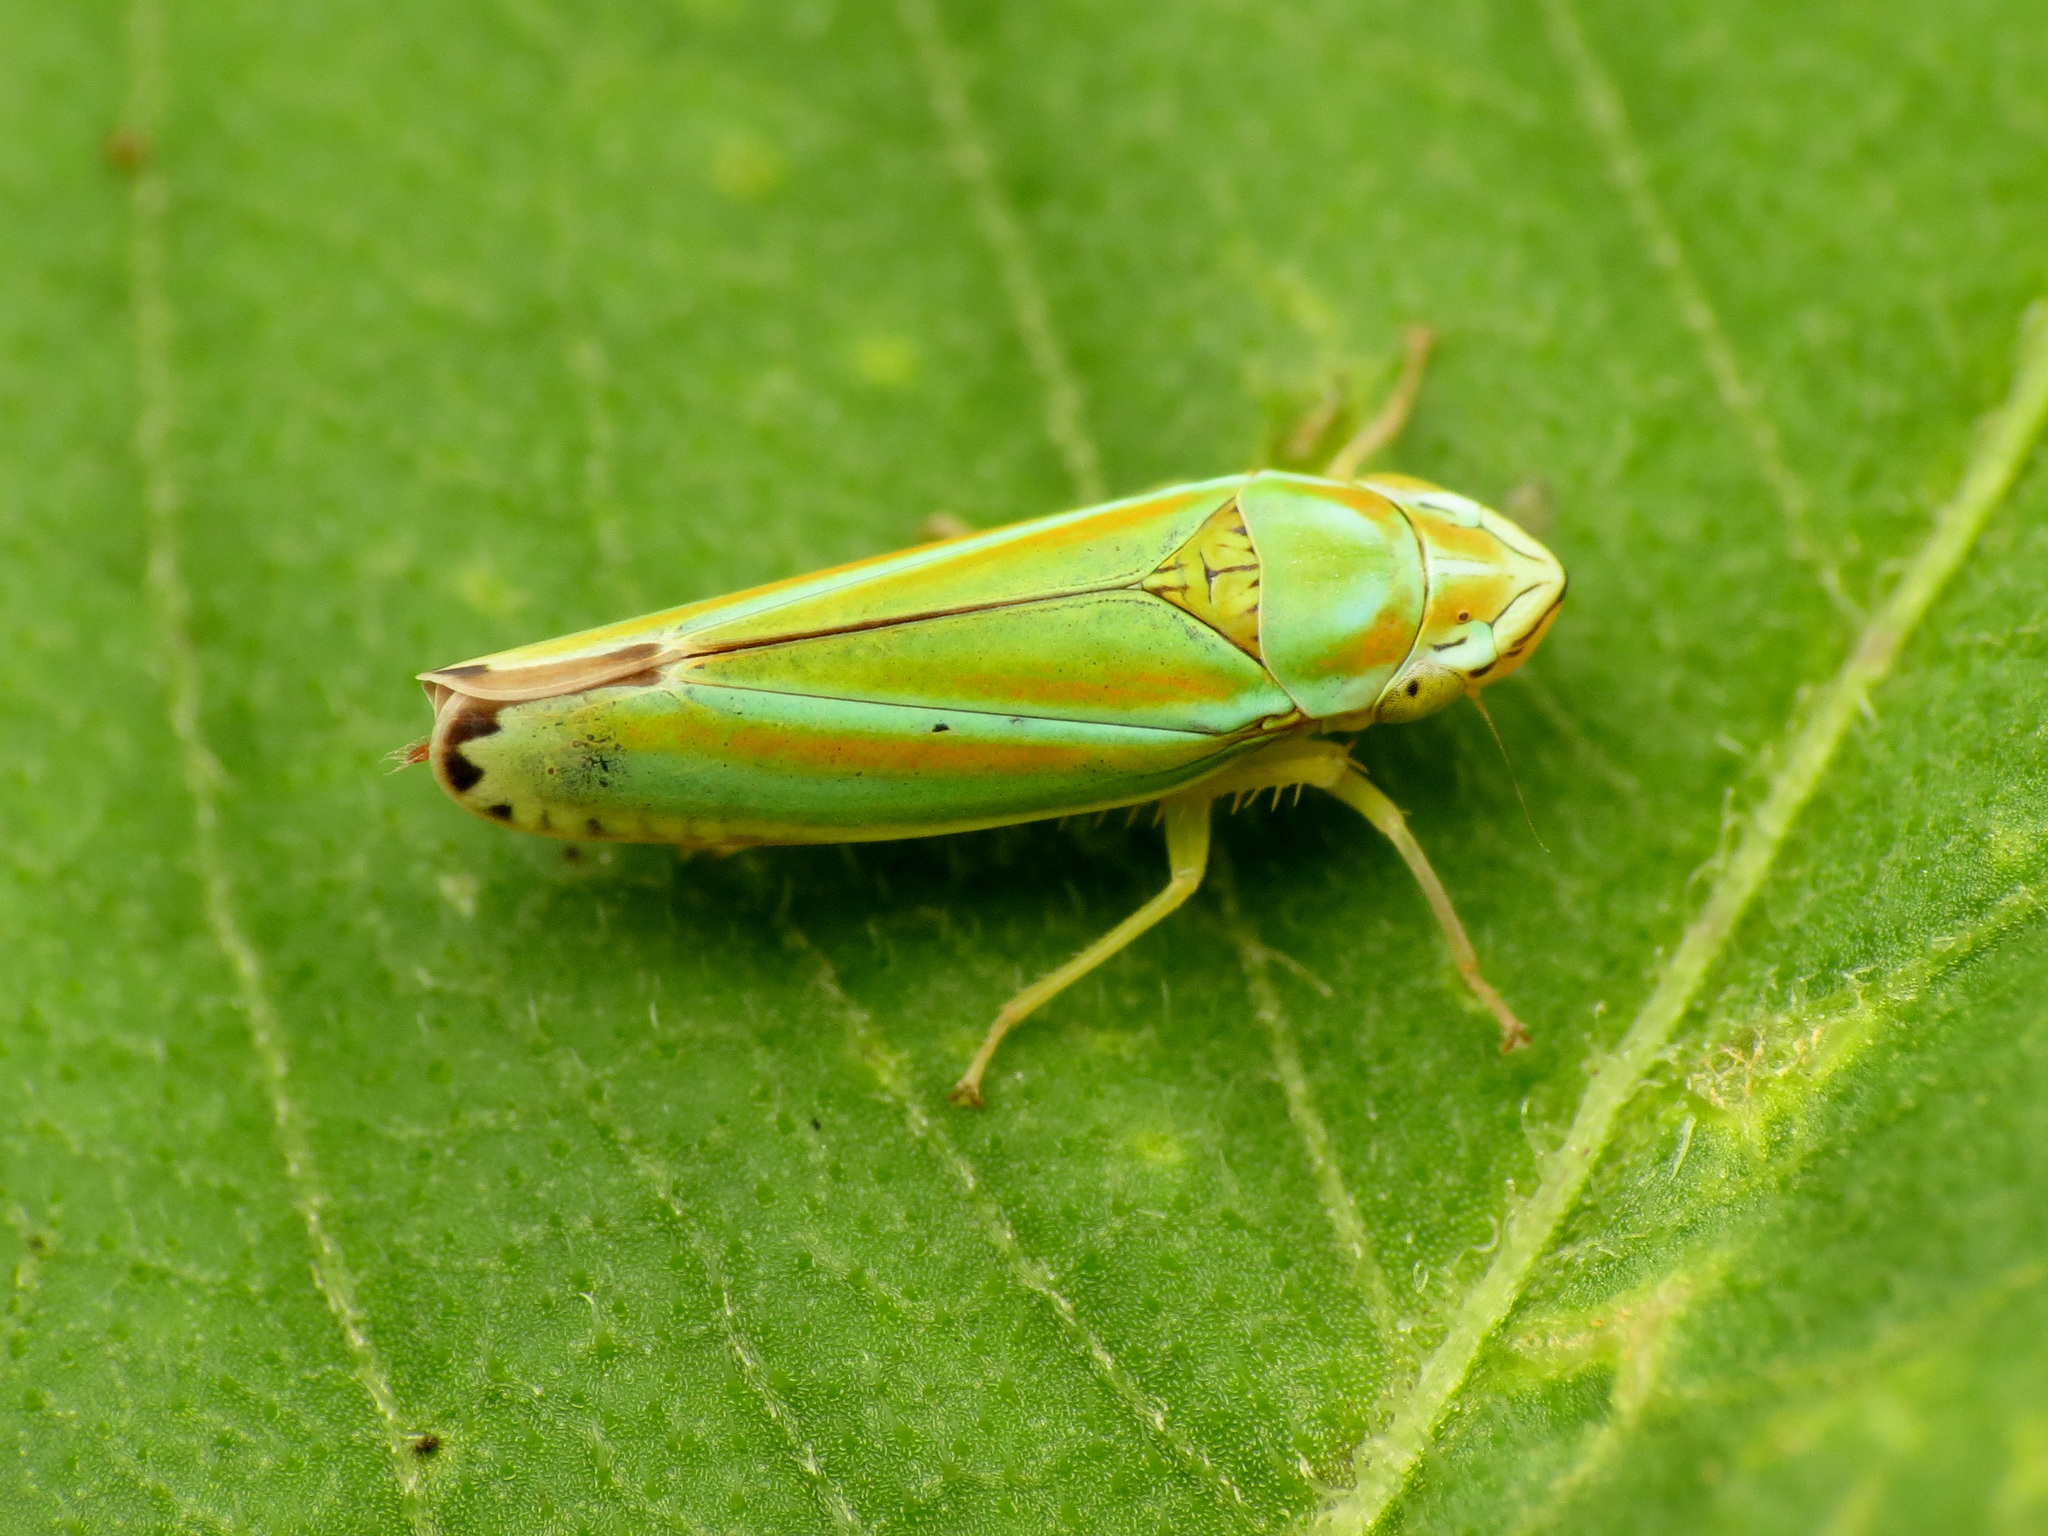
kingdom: Animalia
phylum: Arthropoda
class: Insecta
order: Hemiptera
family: Cicadellidae
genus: Graphocephala
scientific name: Graphocephala versuta
